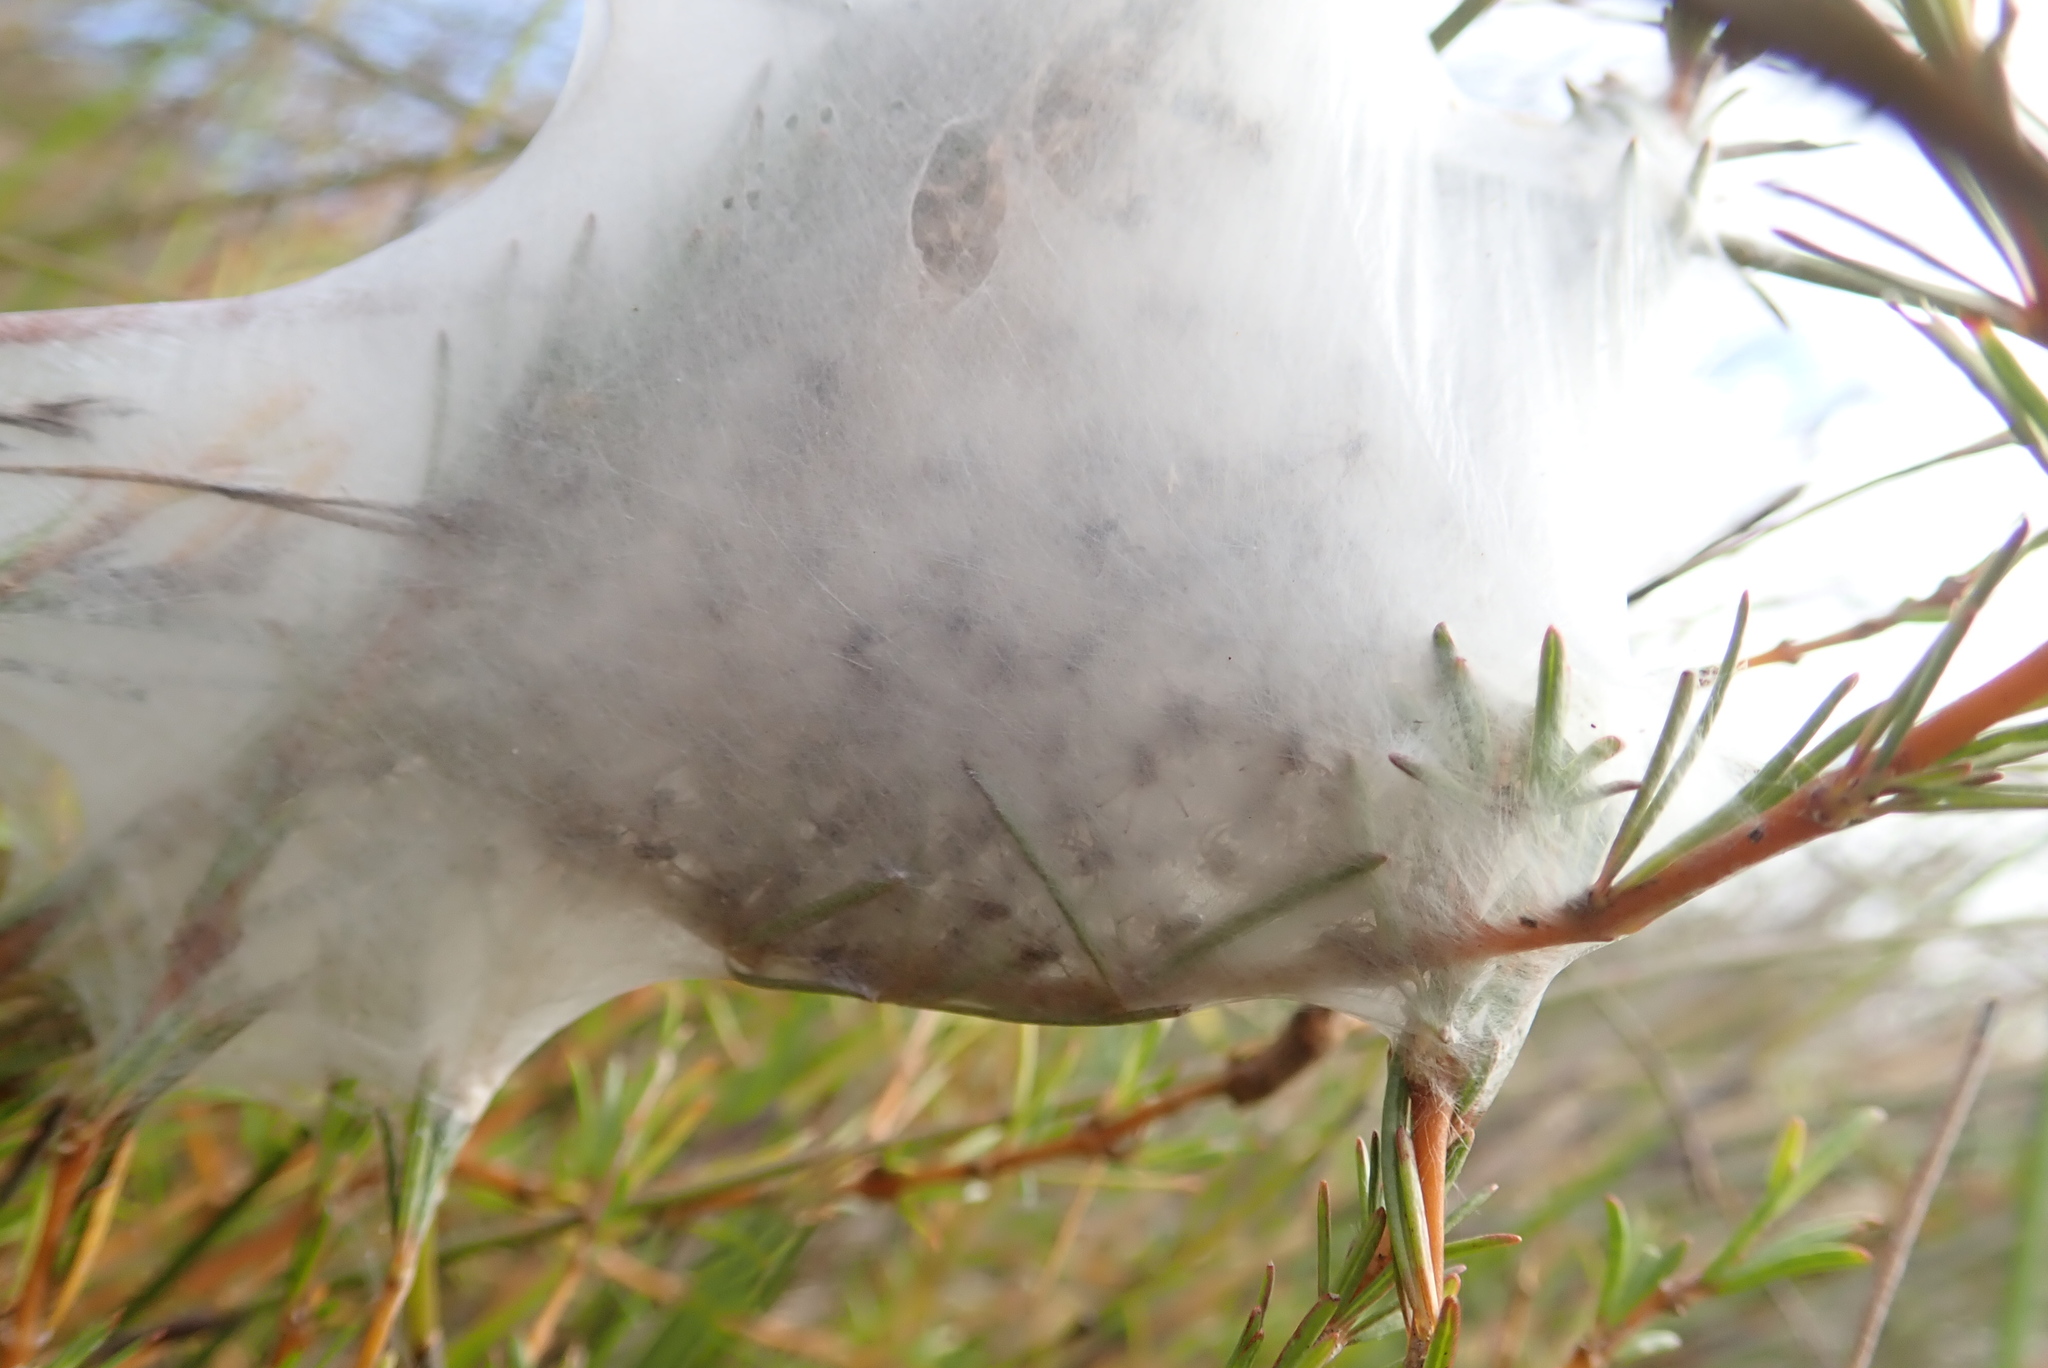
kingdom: Animalia
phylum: Arthropoda
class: Arachnida
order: Araneae
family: Pisauridae
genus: Dolomedes
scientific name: Dolomedes minor
